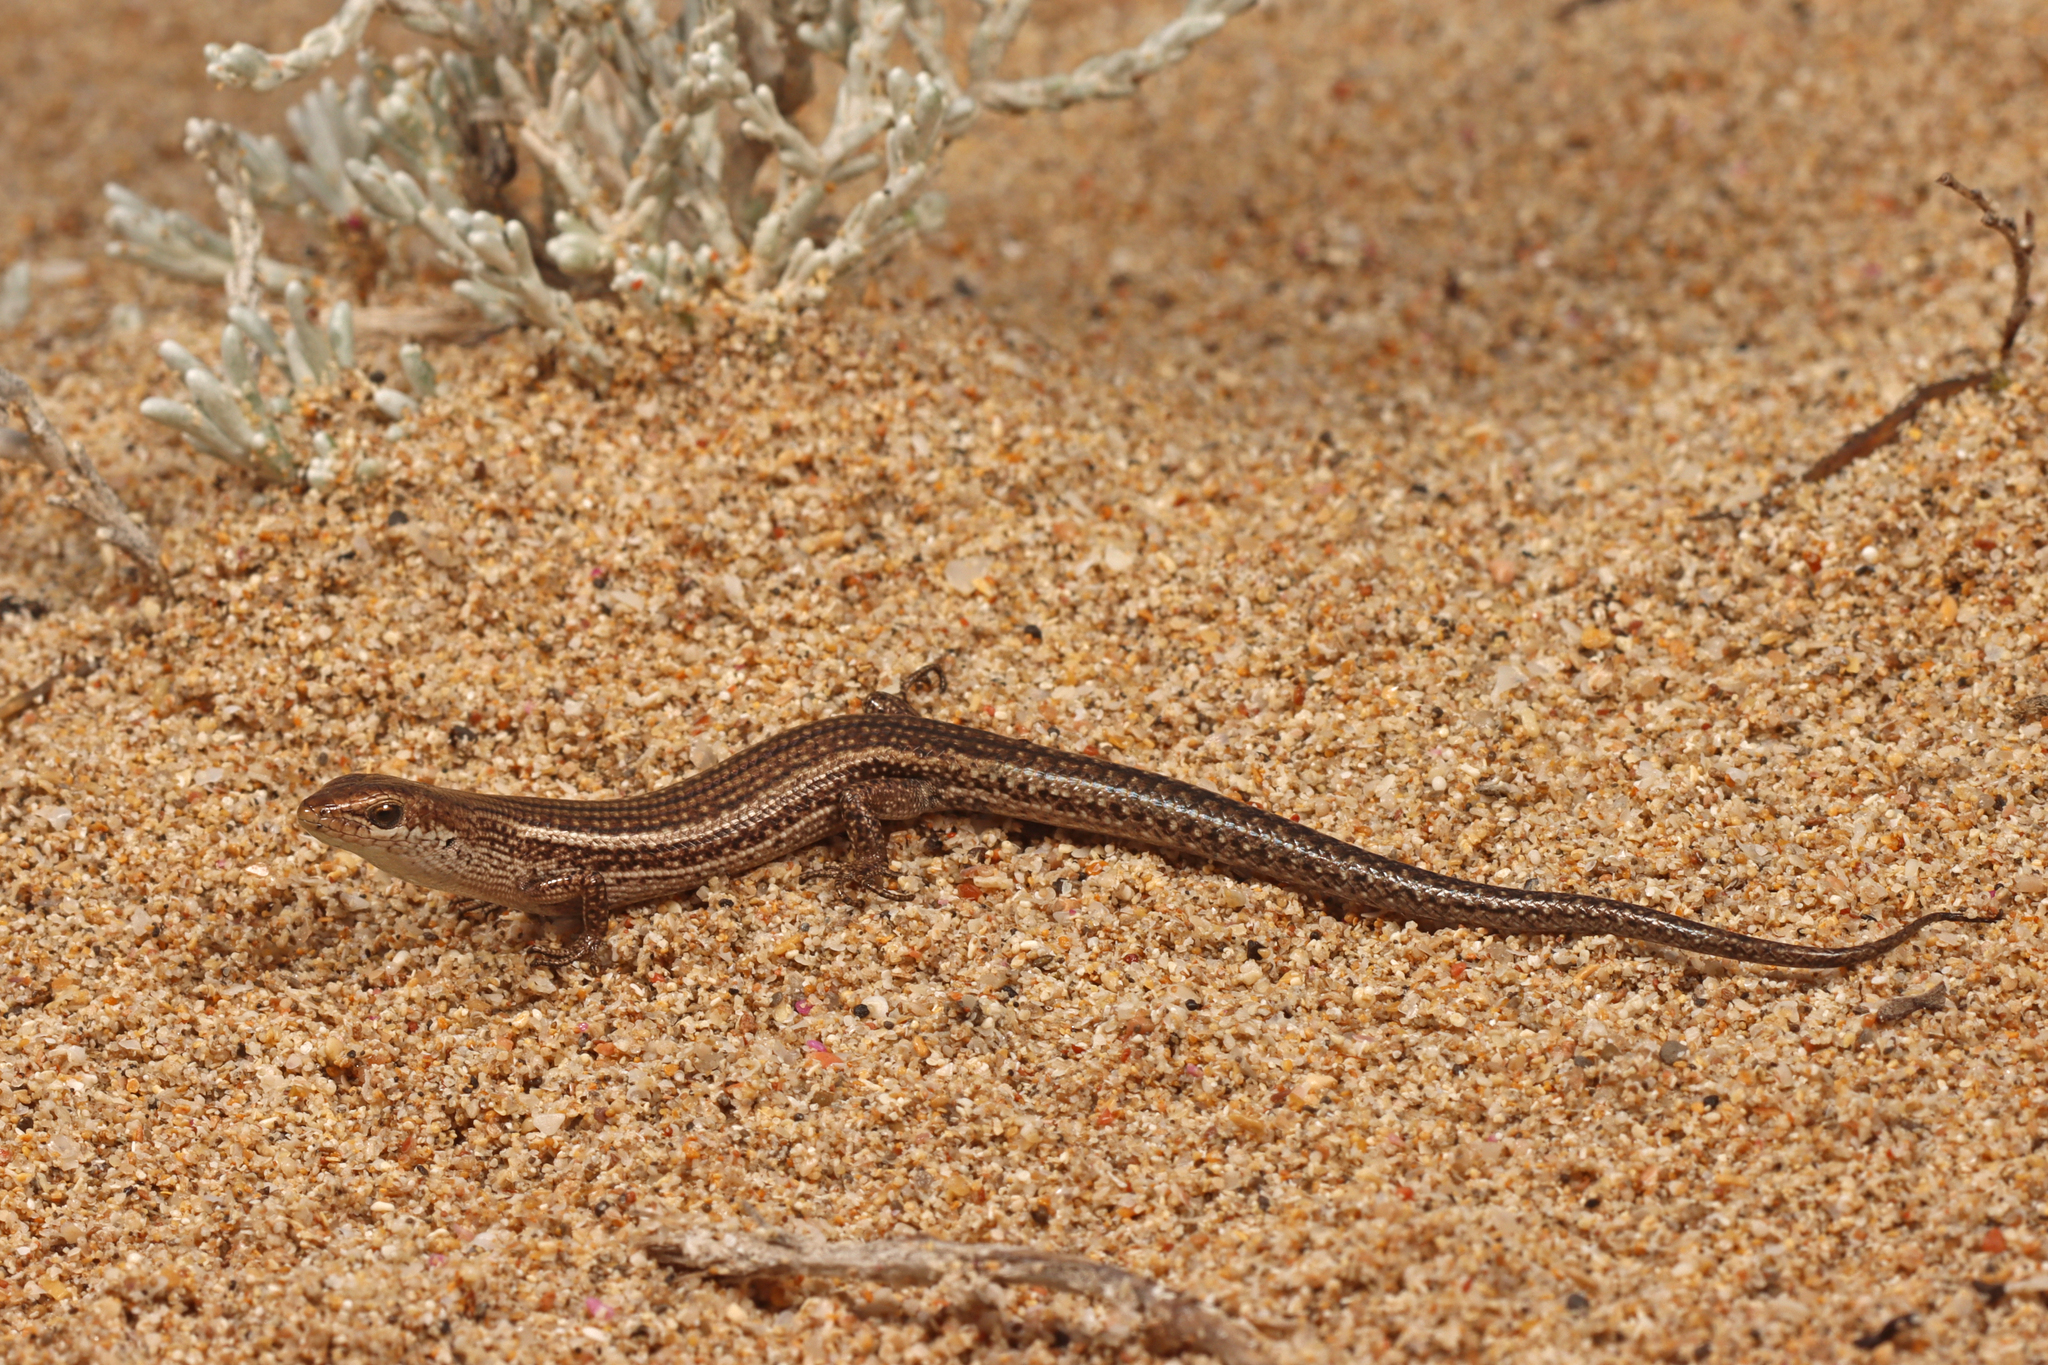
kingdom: Animalia
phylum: Chordata
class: Squamata
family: Scincidae
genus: Pseudemoia
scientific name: Pseudemoia baudini
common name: Baudin’s skink
